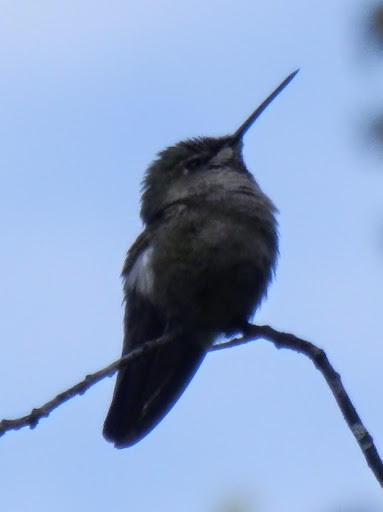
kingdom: Animalia
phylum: Chordata
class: Aves
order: Apodiformes
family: Trochilidae
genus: Calypte
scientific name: Calypte anna
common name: Anna's hummingbird
